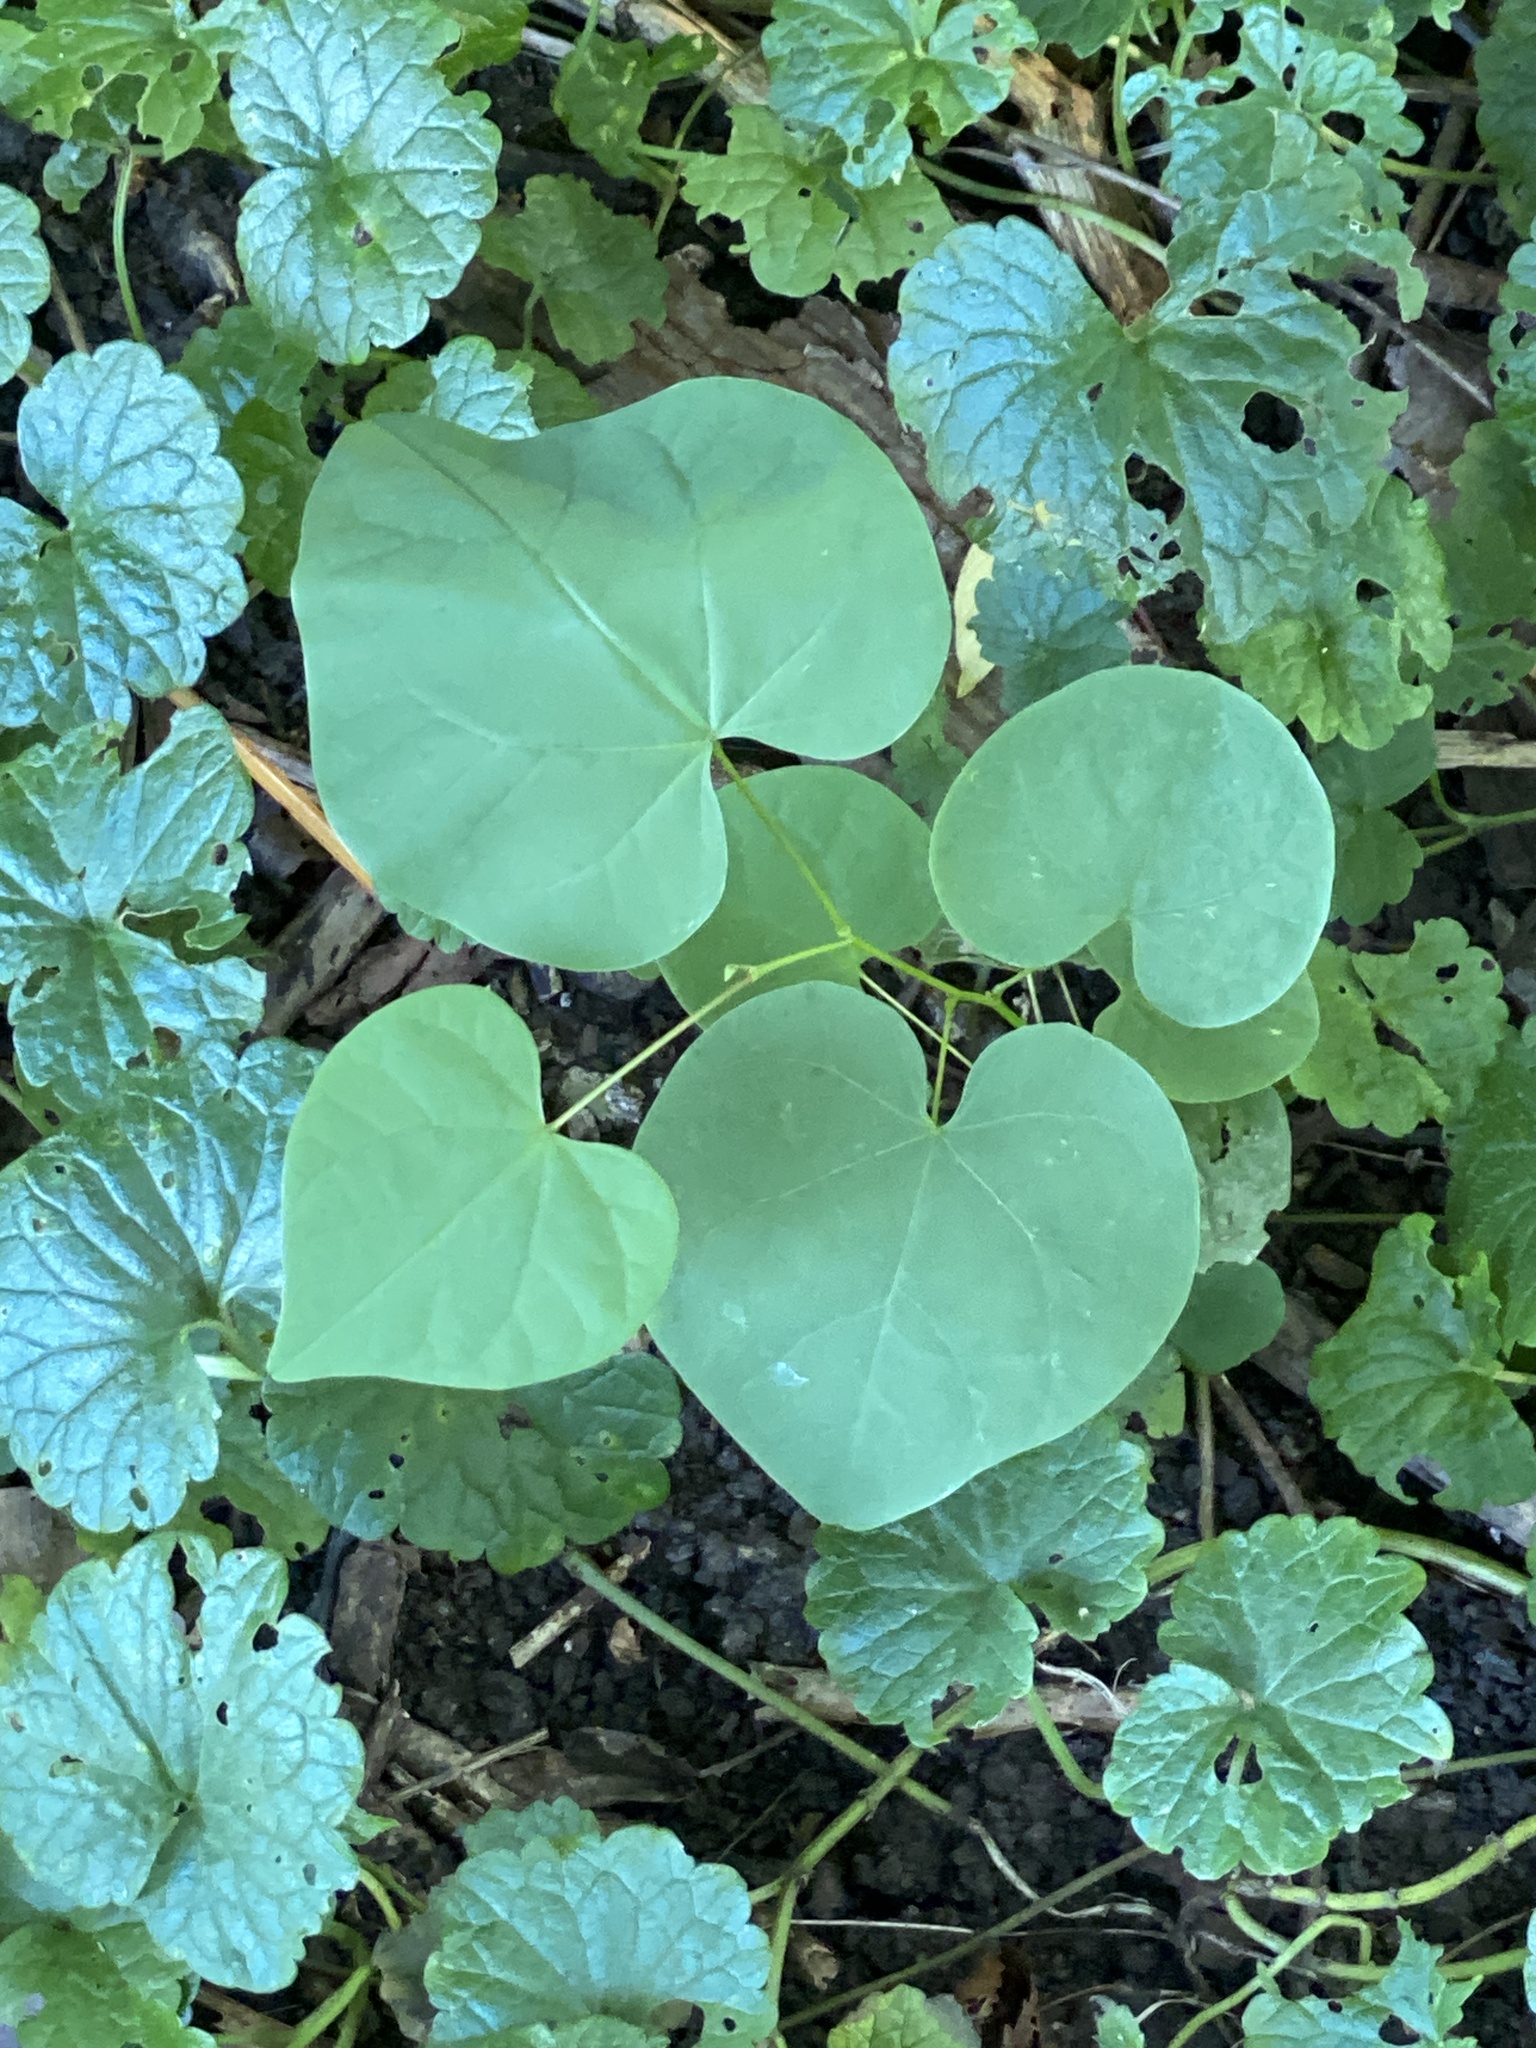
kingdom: Plantae
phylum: Tracheophyta
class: Magnoliopsida
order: Fabales
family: Fabaceae
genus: Cercis
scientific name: Cercis canadensis
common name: Eastern redbud
